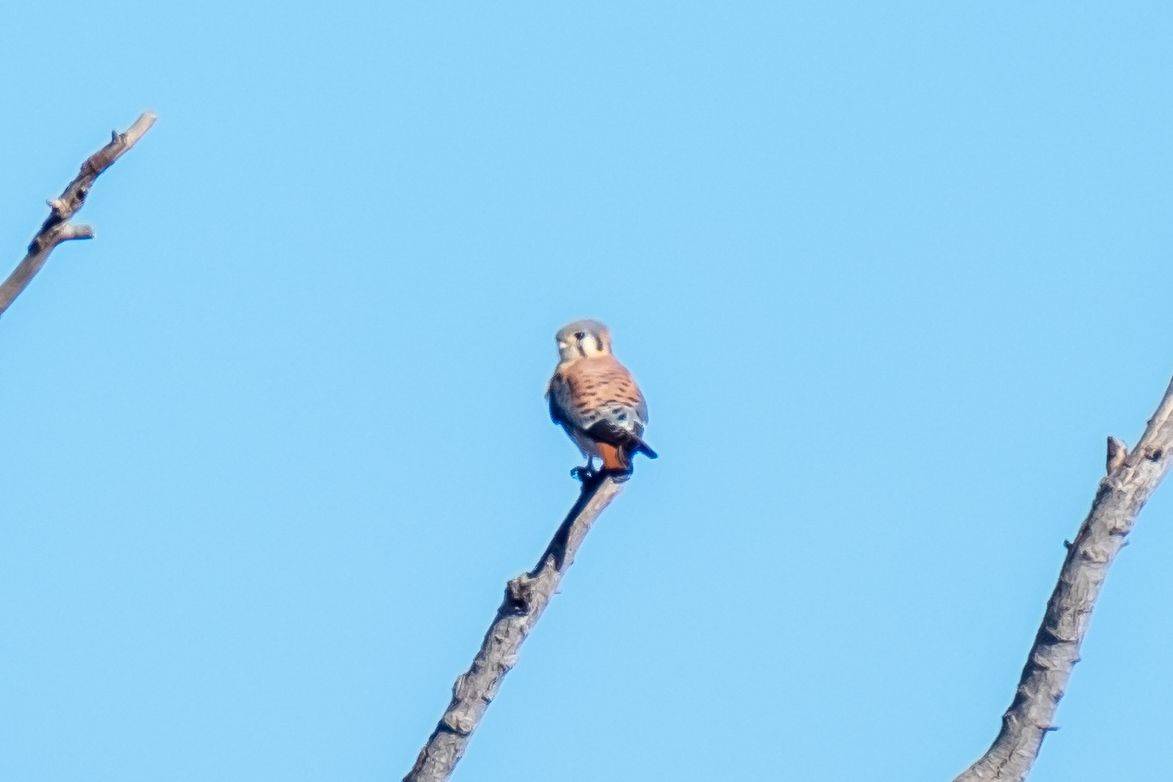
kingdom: Animalia
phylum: Chordata
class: Aves
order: Falconiformes
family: Falconidae
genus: Falco
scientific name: Falco sparverius
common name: American kestrel
